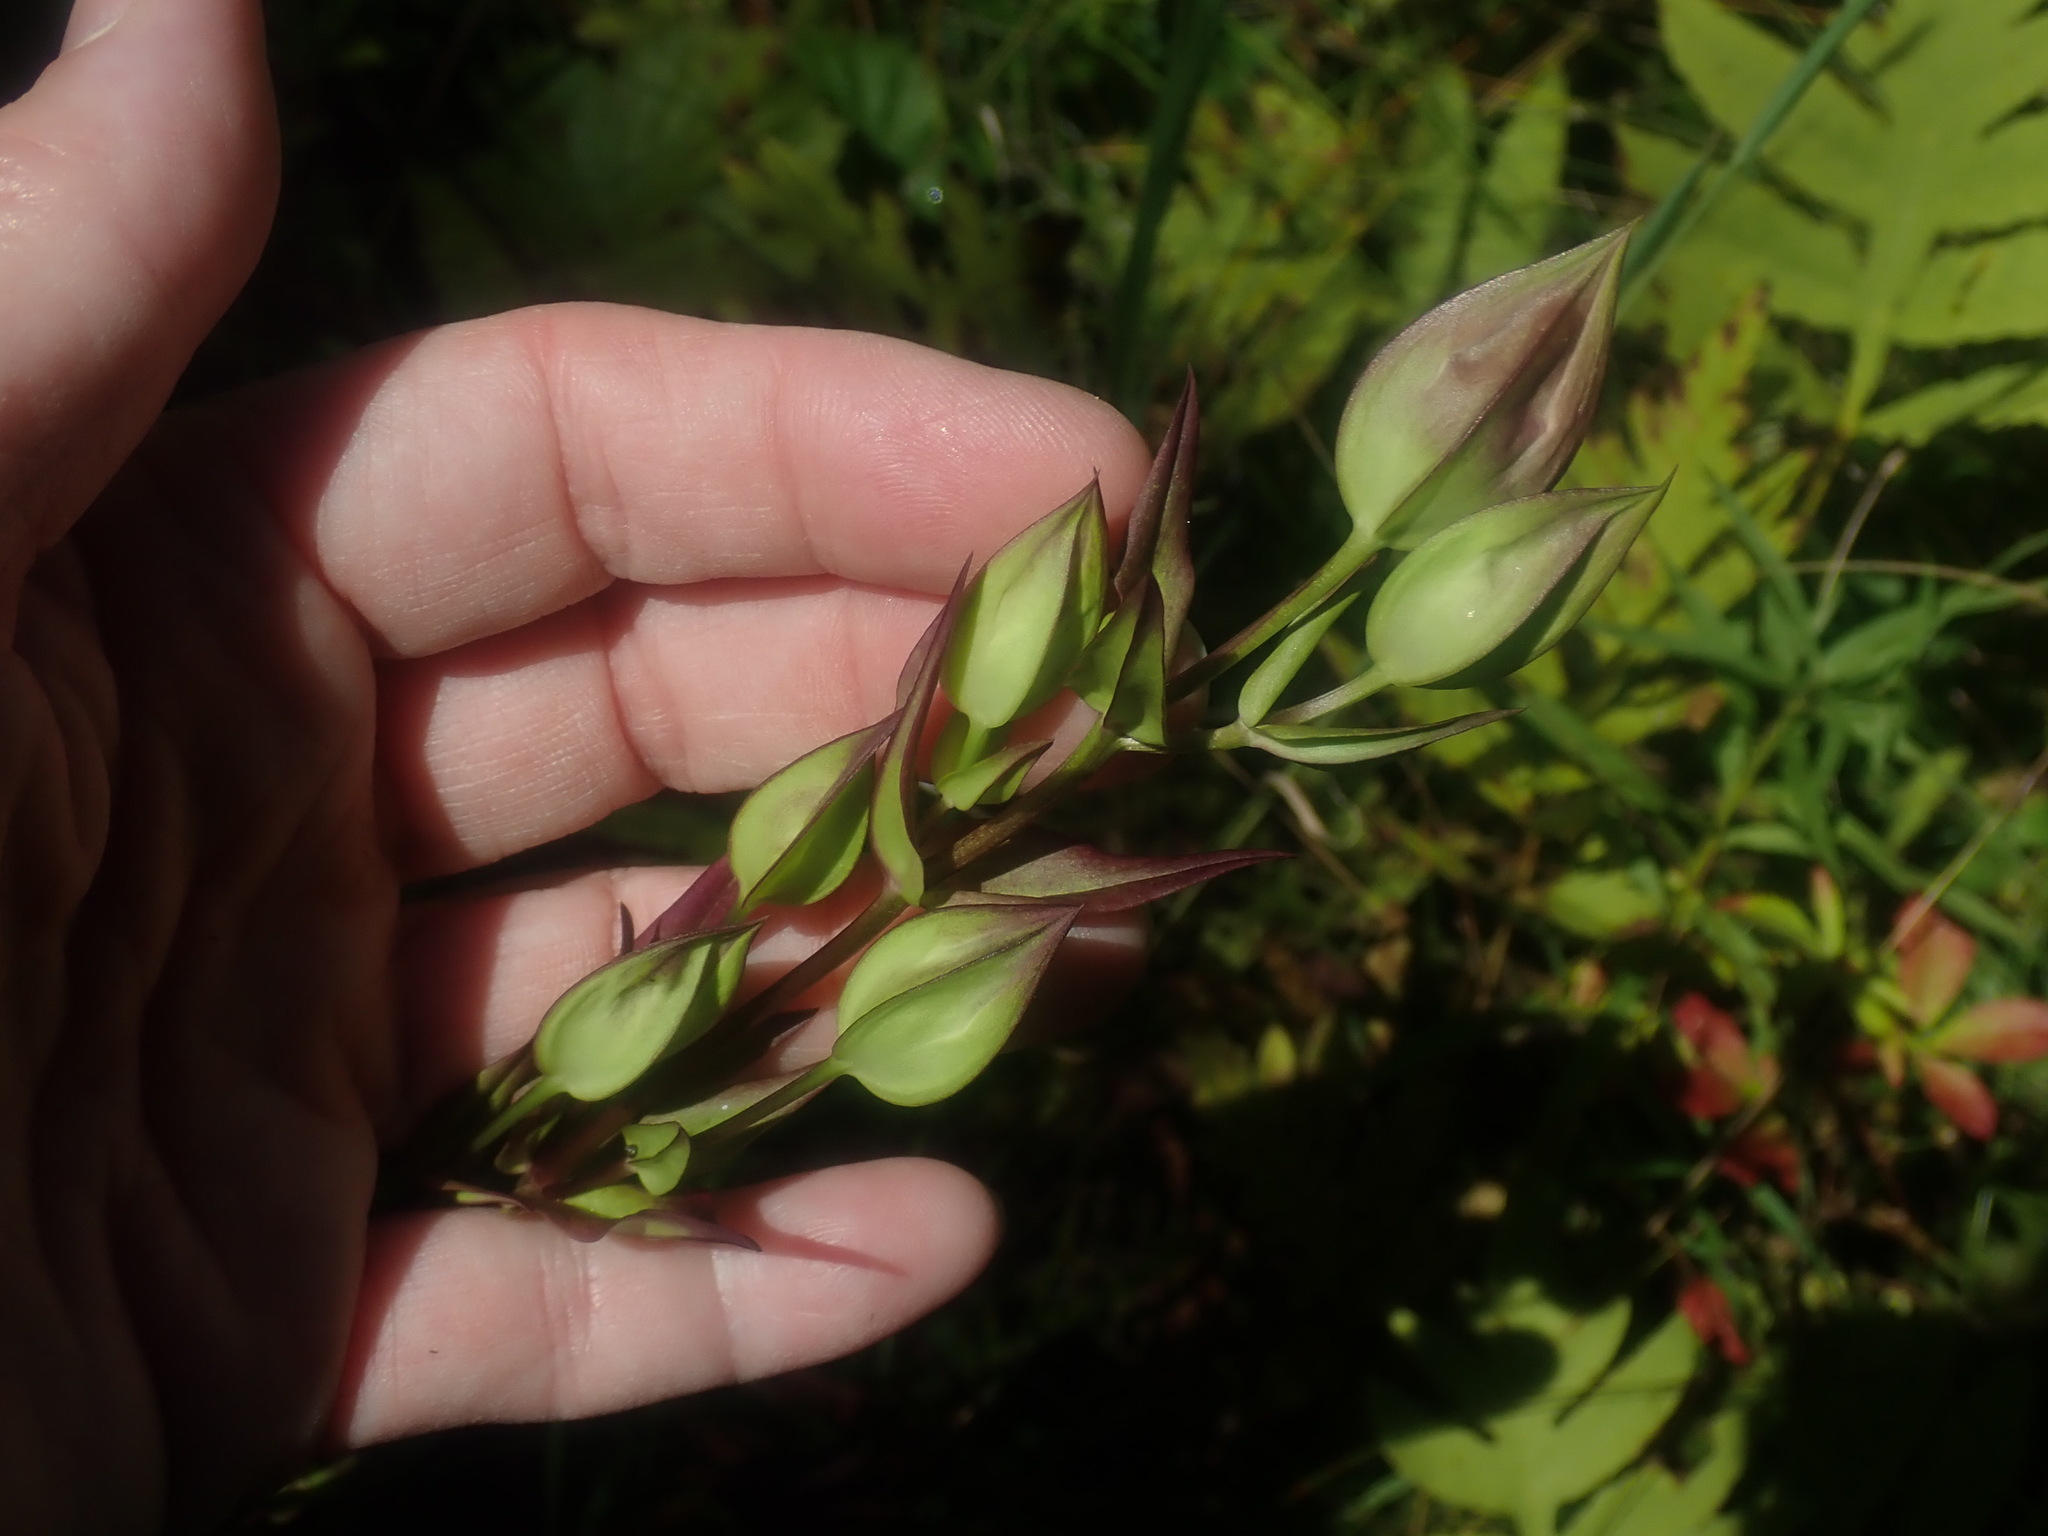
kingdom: Plantae
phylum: Tracheophyta
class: Magnoliopsida
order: Gentianales
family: Gentianaceae
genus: Gentianopsis
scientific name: Gentianopsis crinita
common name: Fringed-gentian
